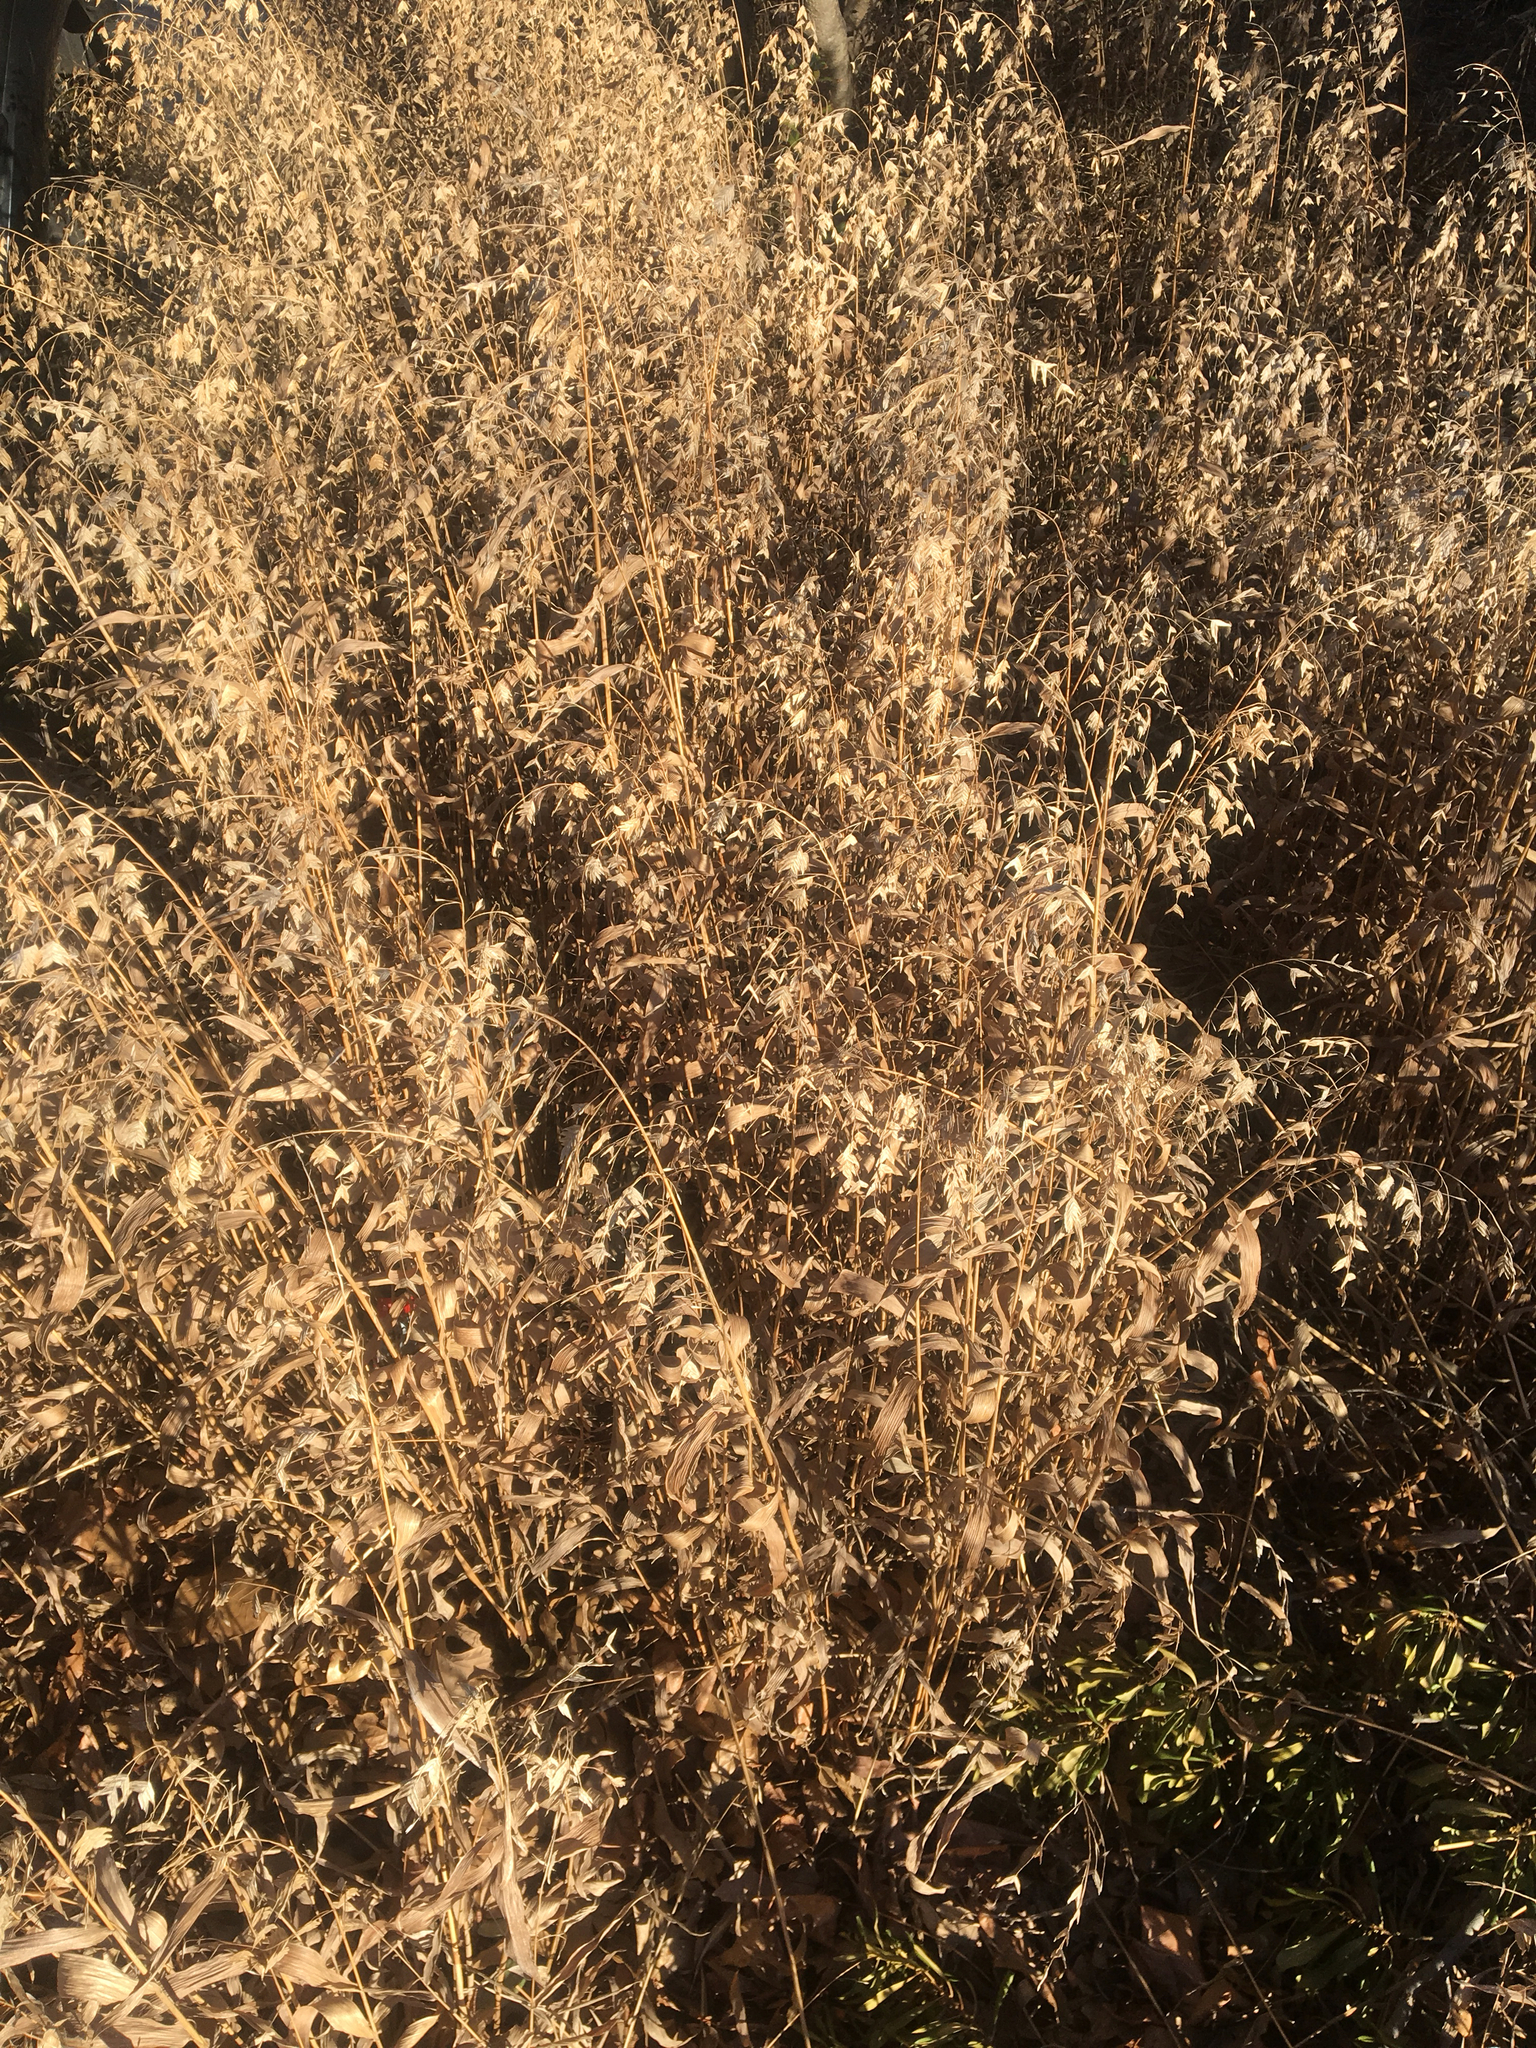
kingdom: Plantae
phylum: Tracheophyta
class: Liliopsida
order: Poales
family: Poaceae
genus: Chasmanthium
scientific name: Chasmanthium latifolium
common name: Broad-leaved chasmanthium
